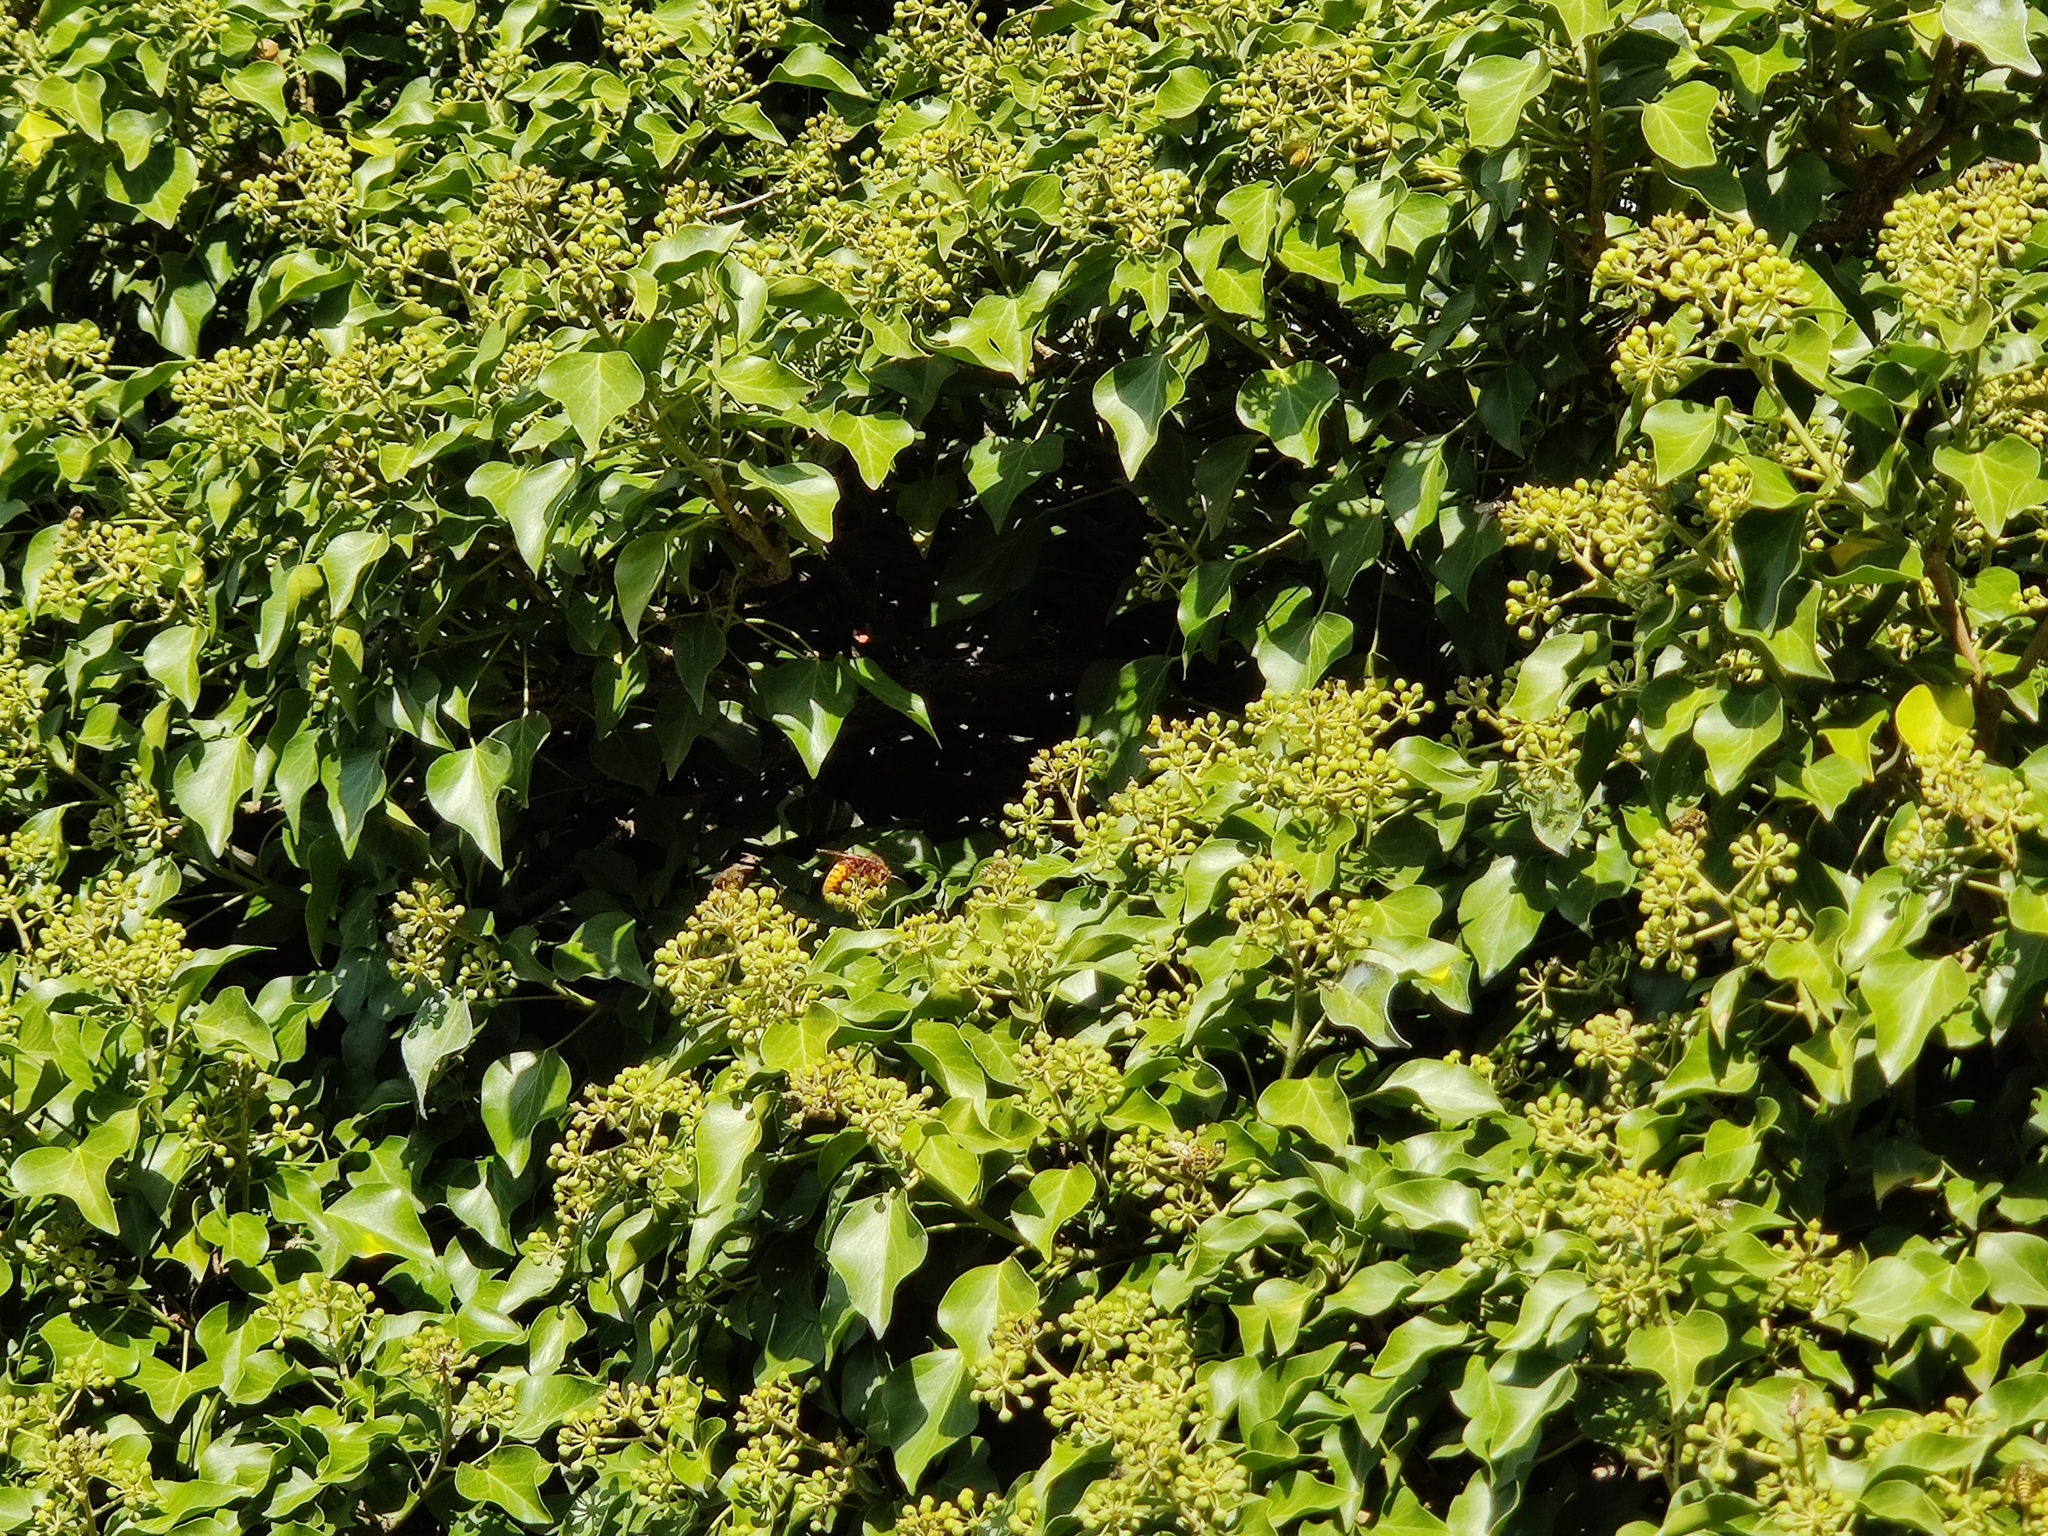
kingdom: Animalia
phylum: Arthropoda
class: Insecta
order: Hymenoptera
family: Vespidae
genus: Vespa
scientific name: Vespa crabro
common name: Hornet
